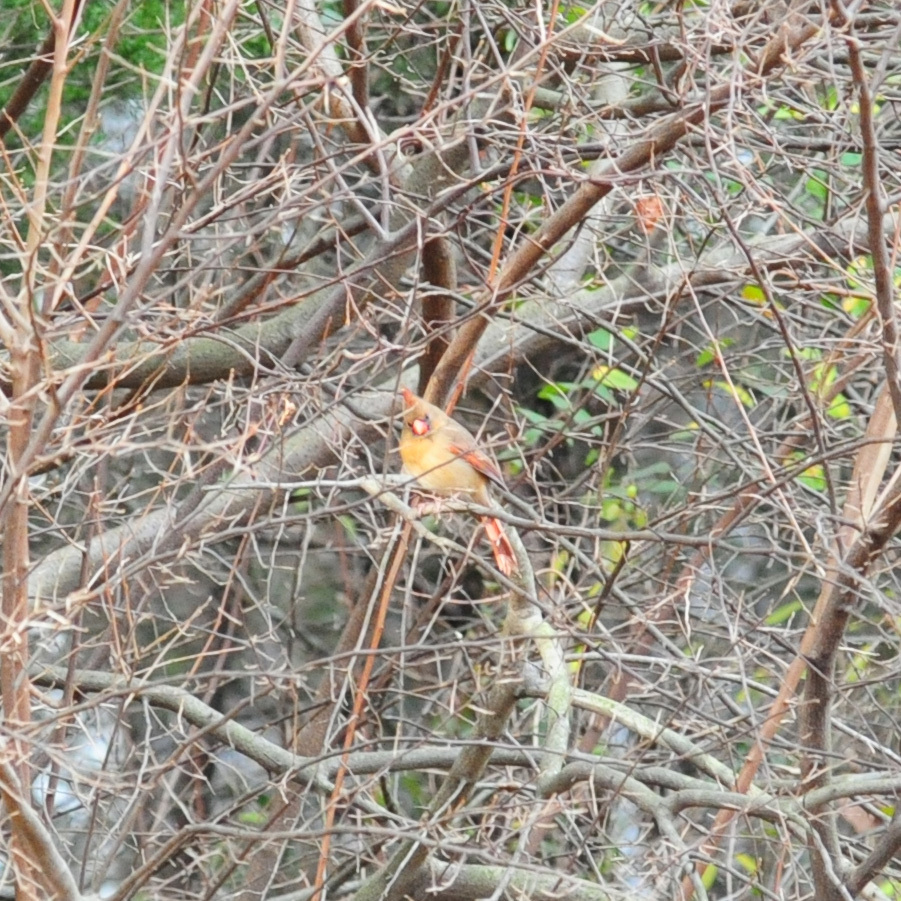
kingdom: Animalia
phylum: Chordata
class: Aves
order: Passeriformes
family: Cardinalidae
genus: Cardinalis
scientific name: Cardinalis cardinalis
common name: Northern cardinal
